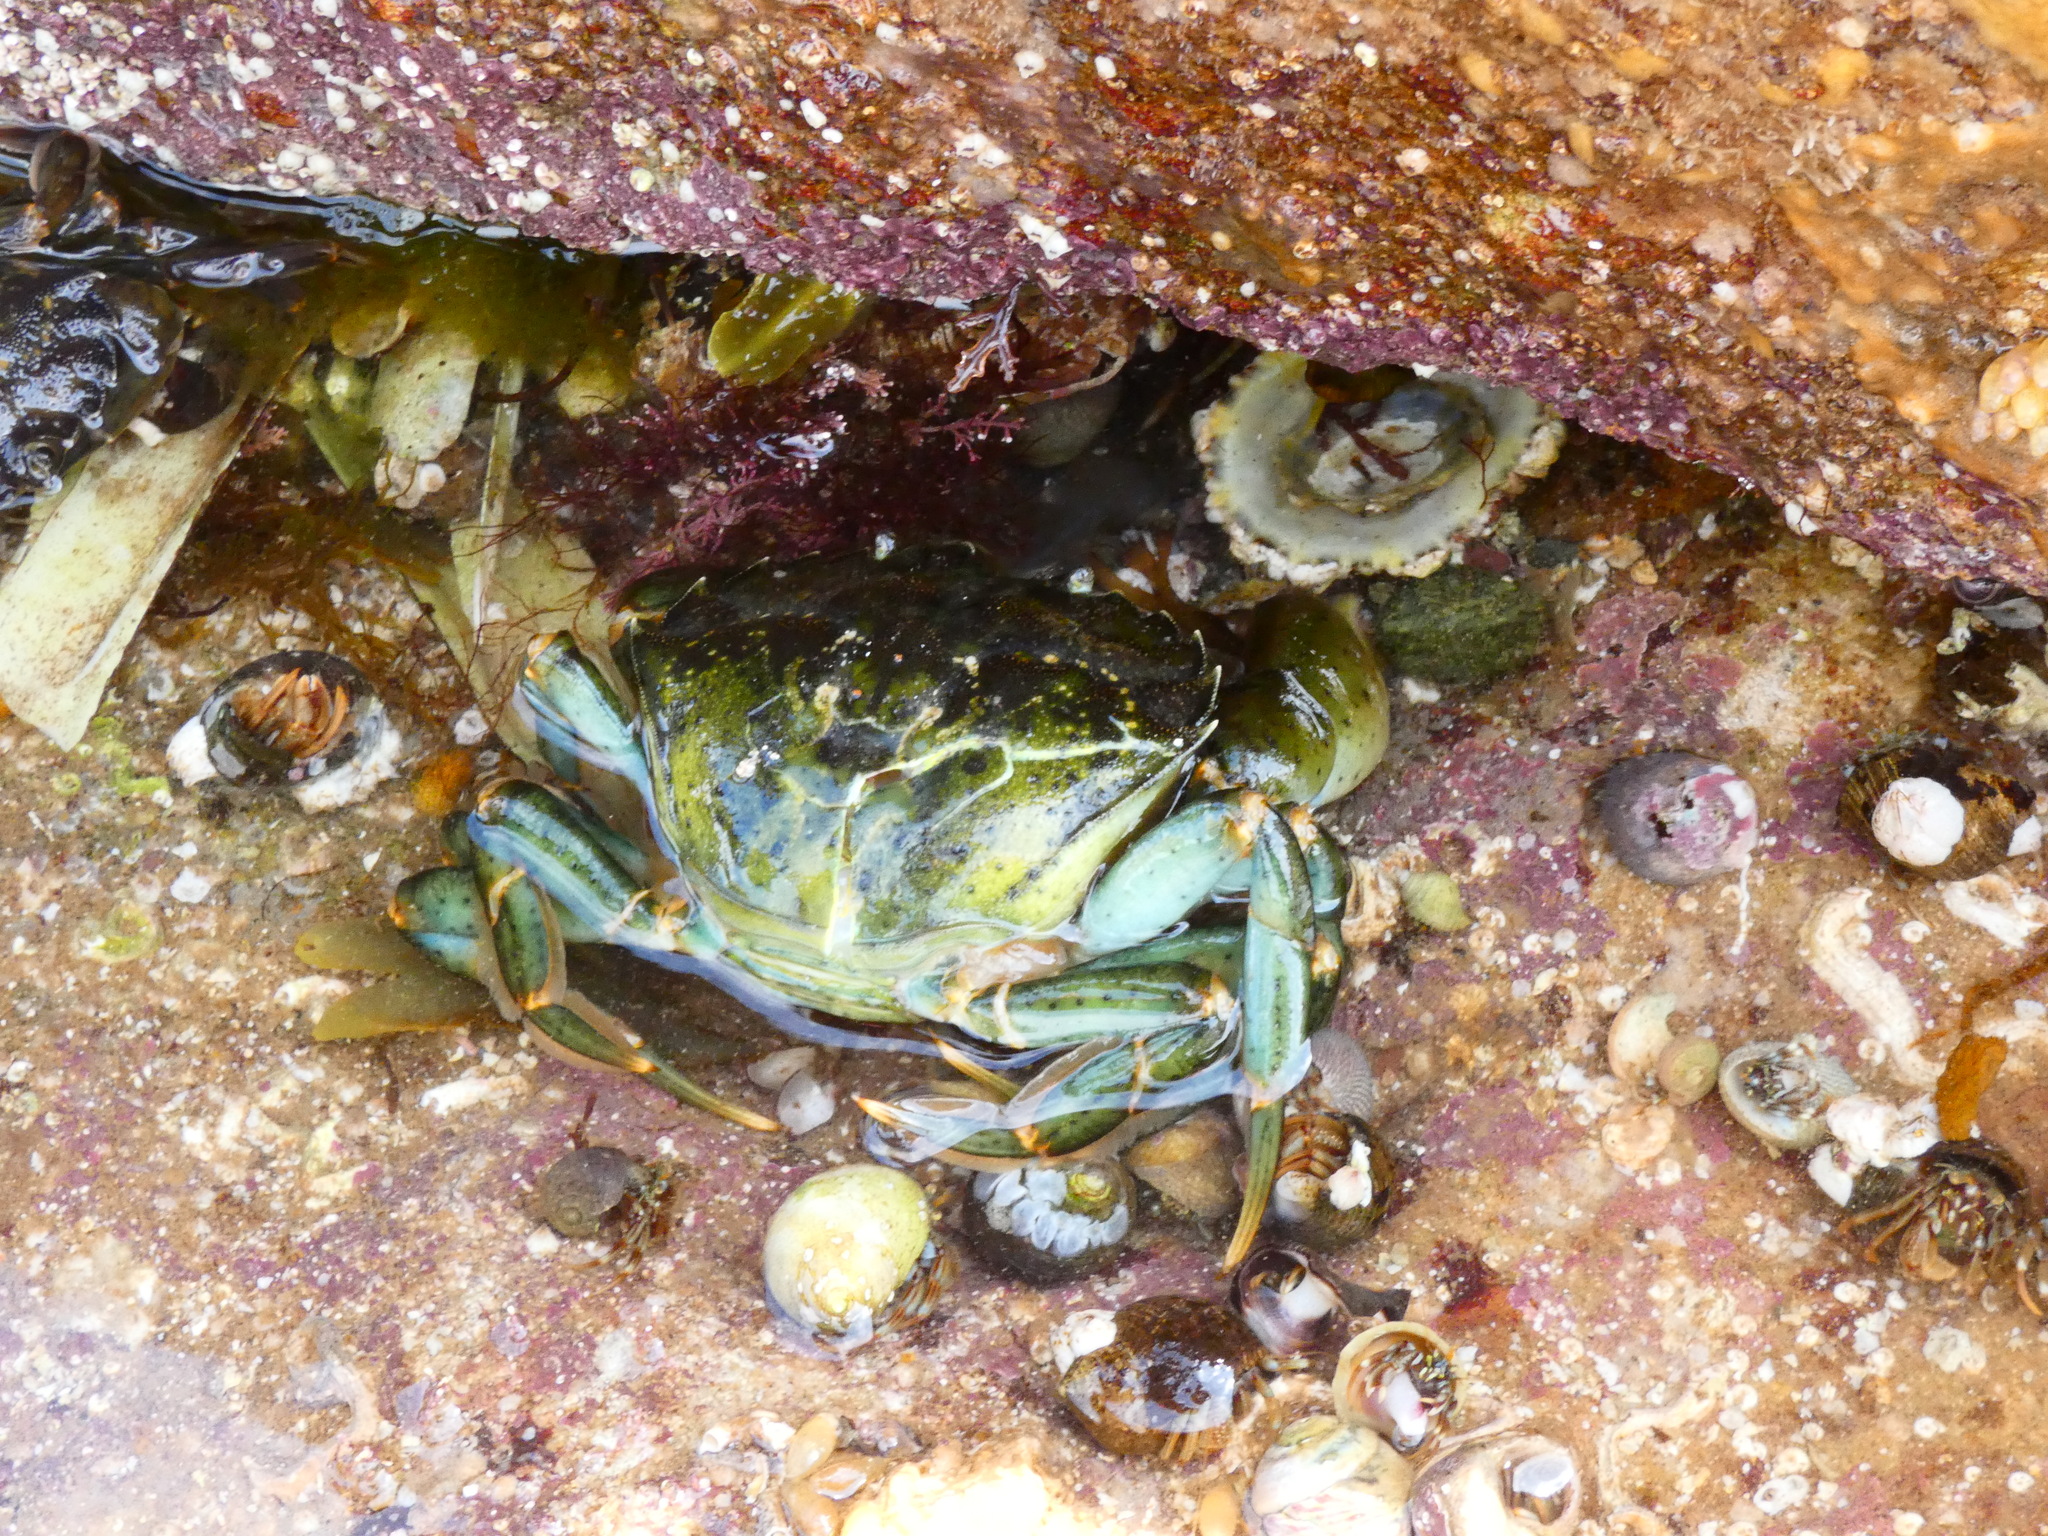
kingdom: Animalia
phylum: Arthropoda
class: Malacostraca
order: Decapoda
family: Carcinidae
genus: Carcinus
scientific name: Carcinus maenas
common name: European green crab
